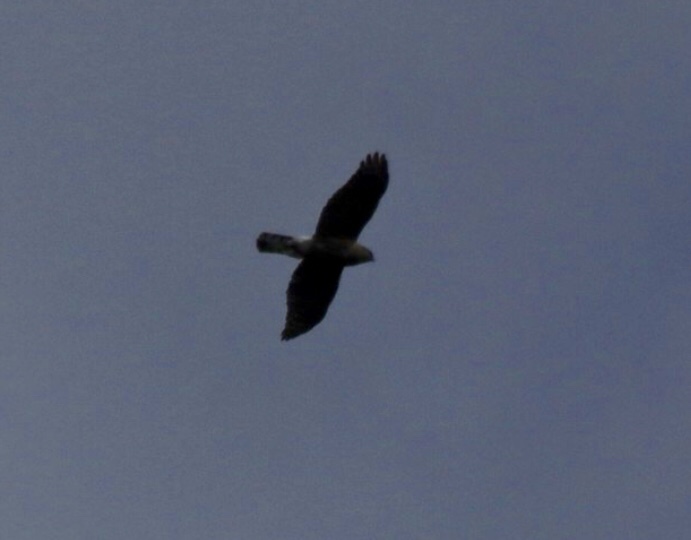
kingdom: Animalia
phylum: Chordata
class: Aves
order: Accipitriformes
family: Accipitridae
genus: Accipiter
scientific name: Accipiter cooperii
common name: Cooper's hawk
